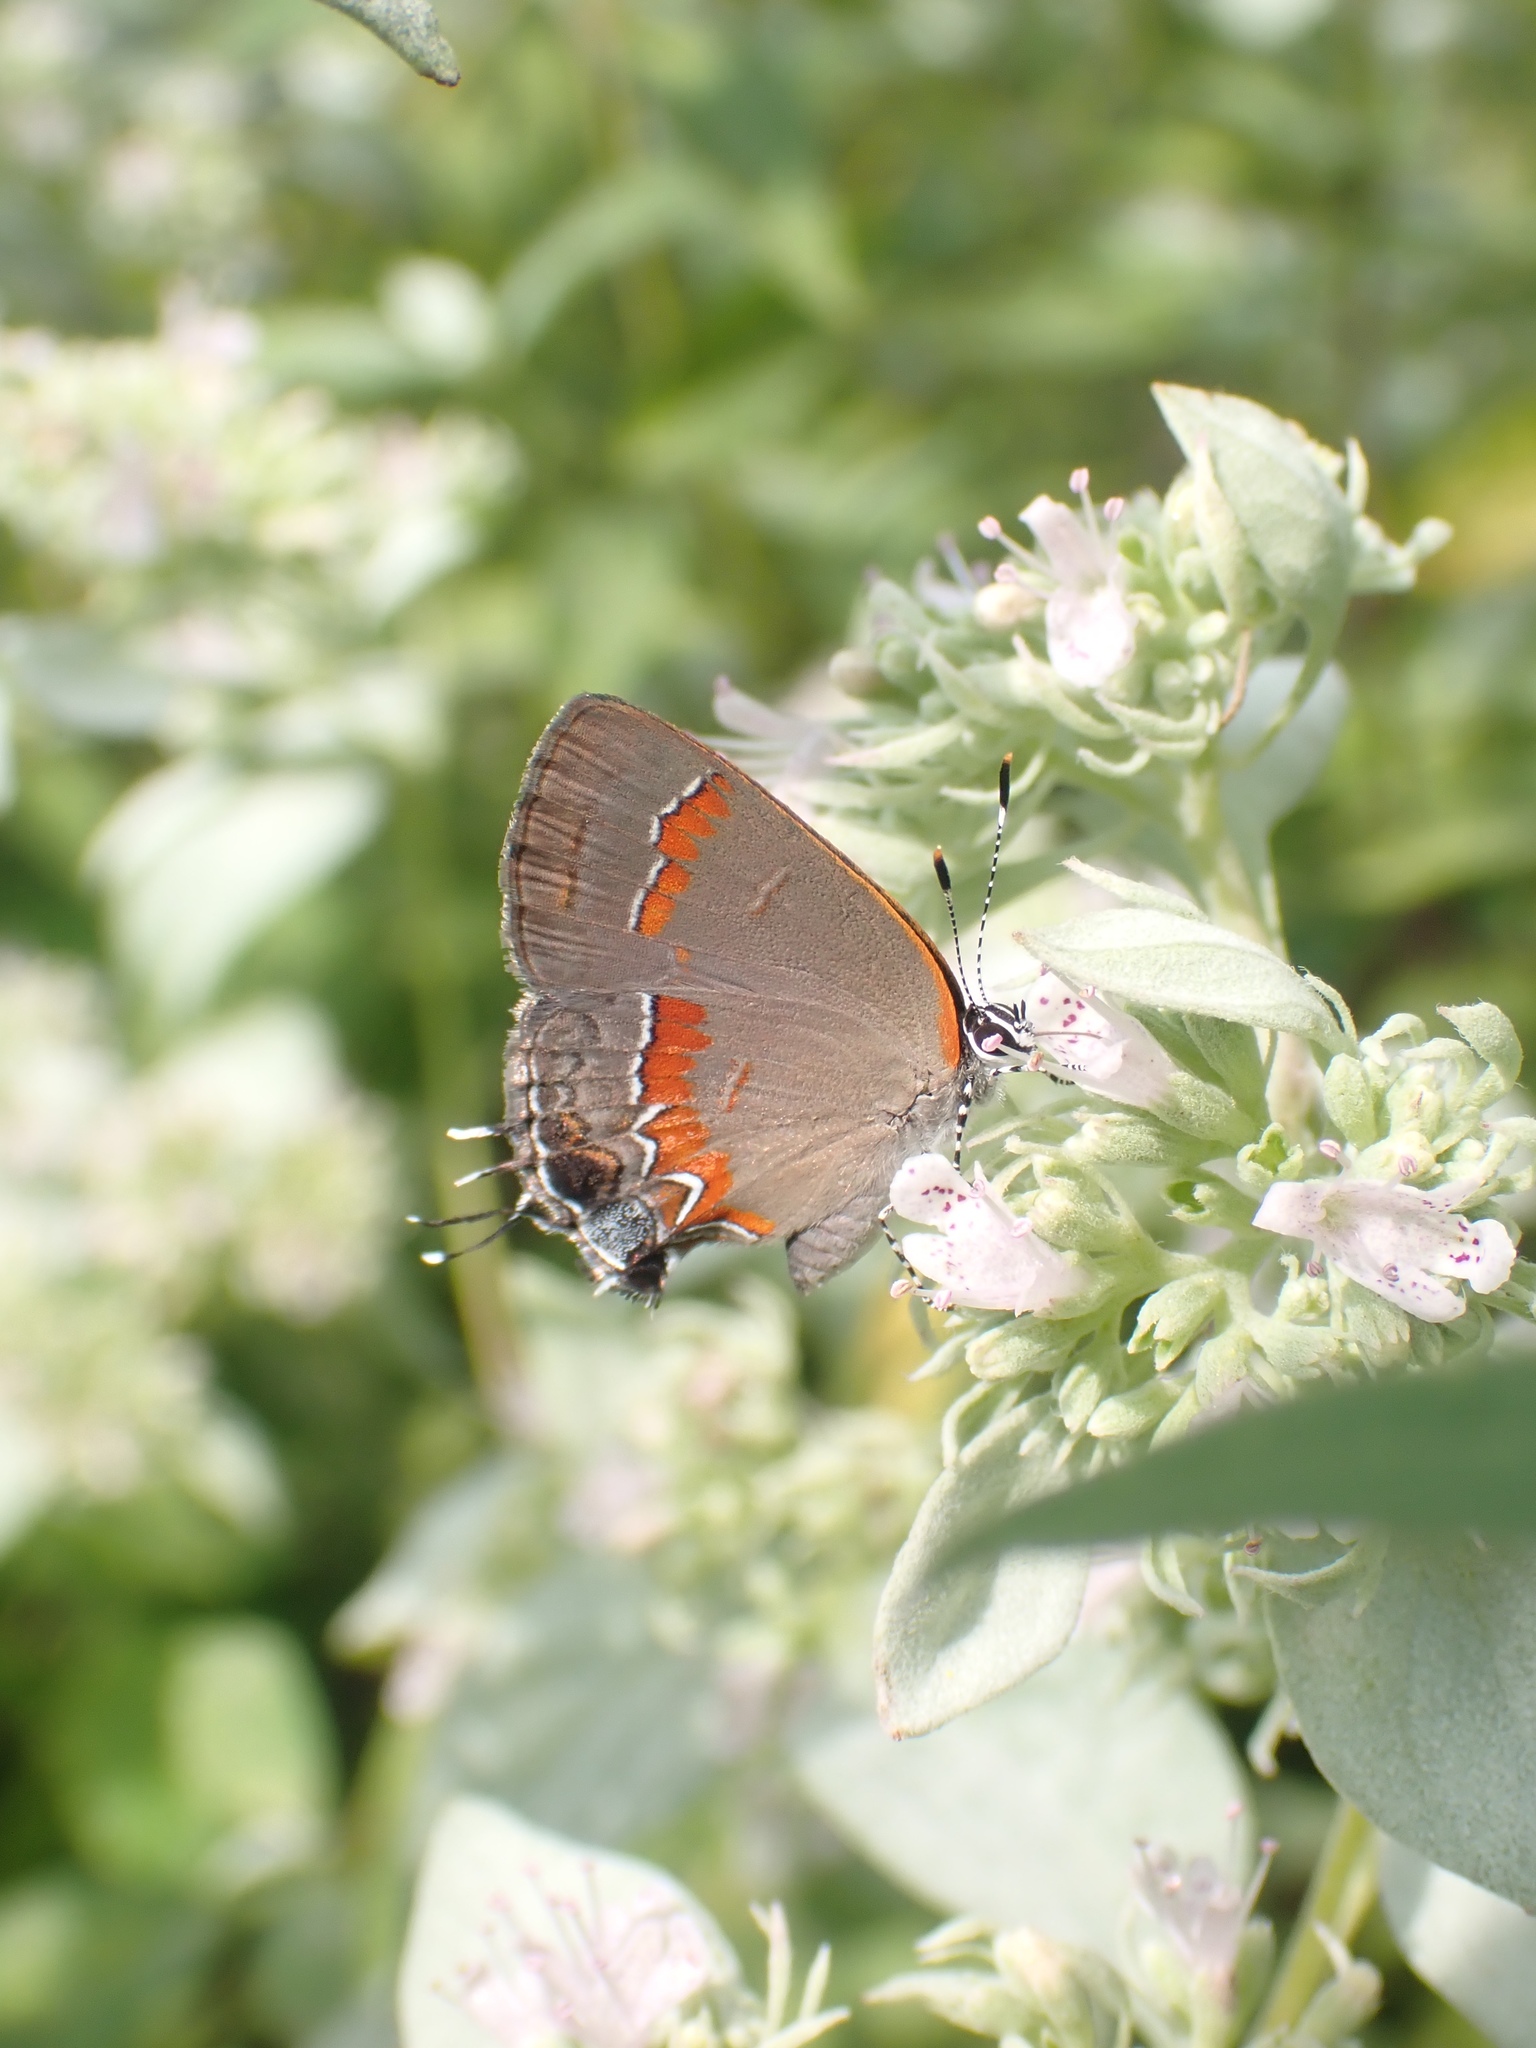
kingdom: Animalia
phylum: Arthropoda
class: Insecta
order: Lepidoptera
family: Lycaenidae
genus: Calycopis
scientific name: Calycopis cecrops
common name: Red-banded hairstreak
